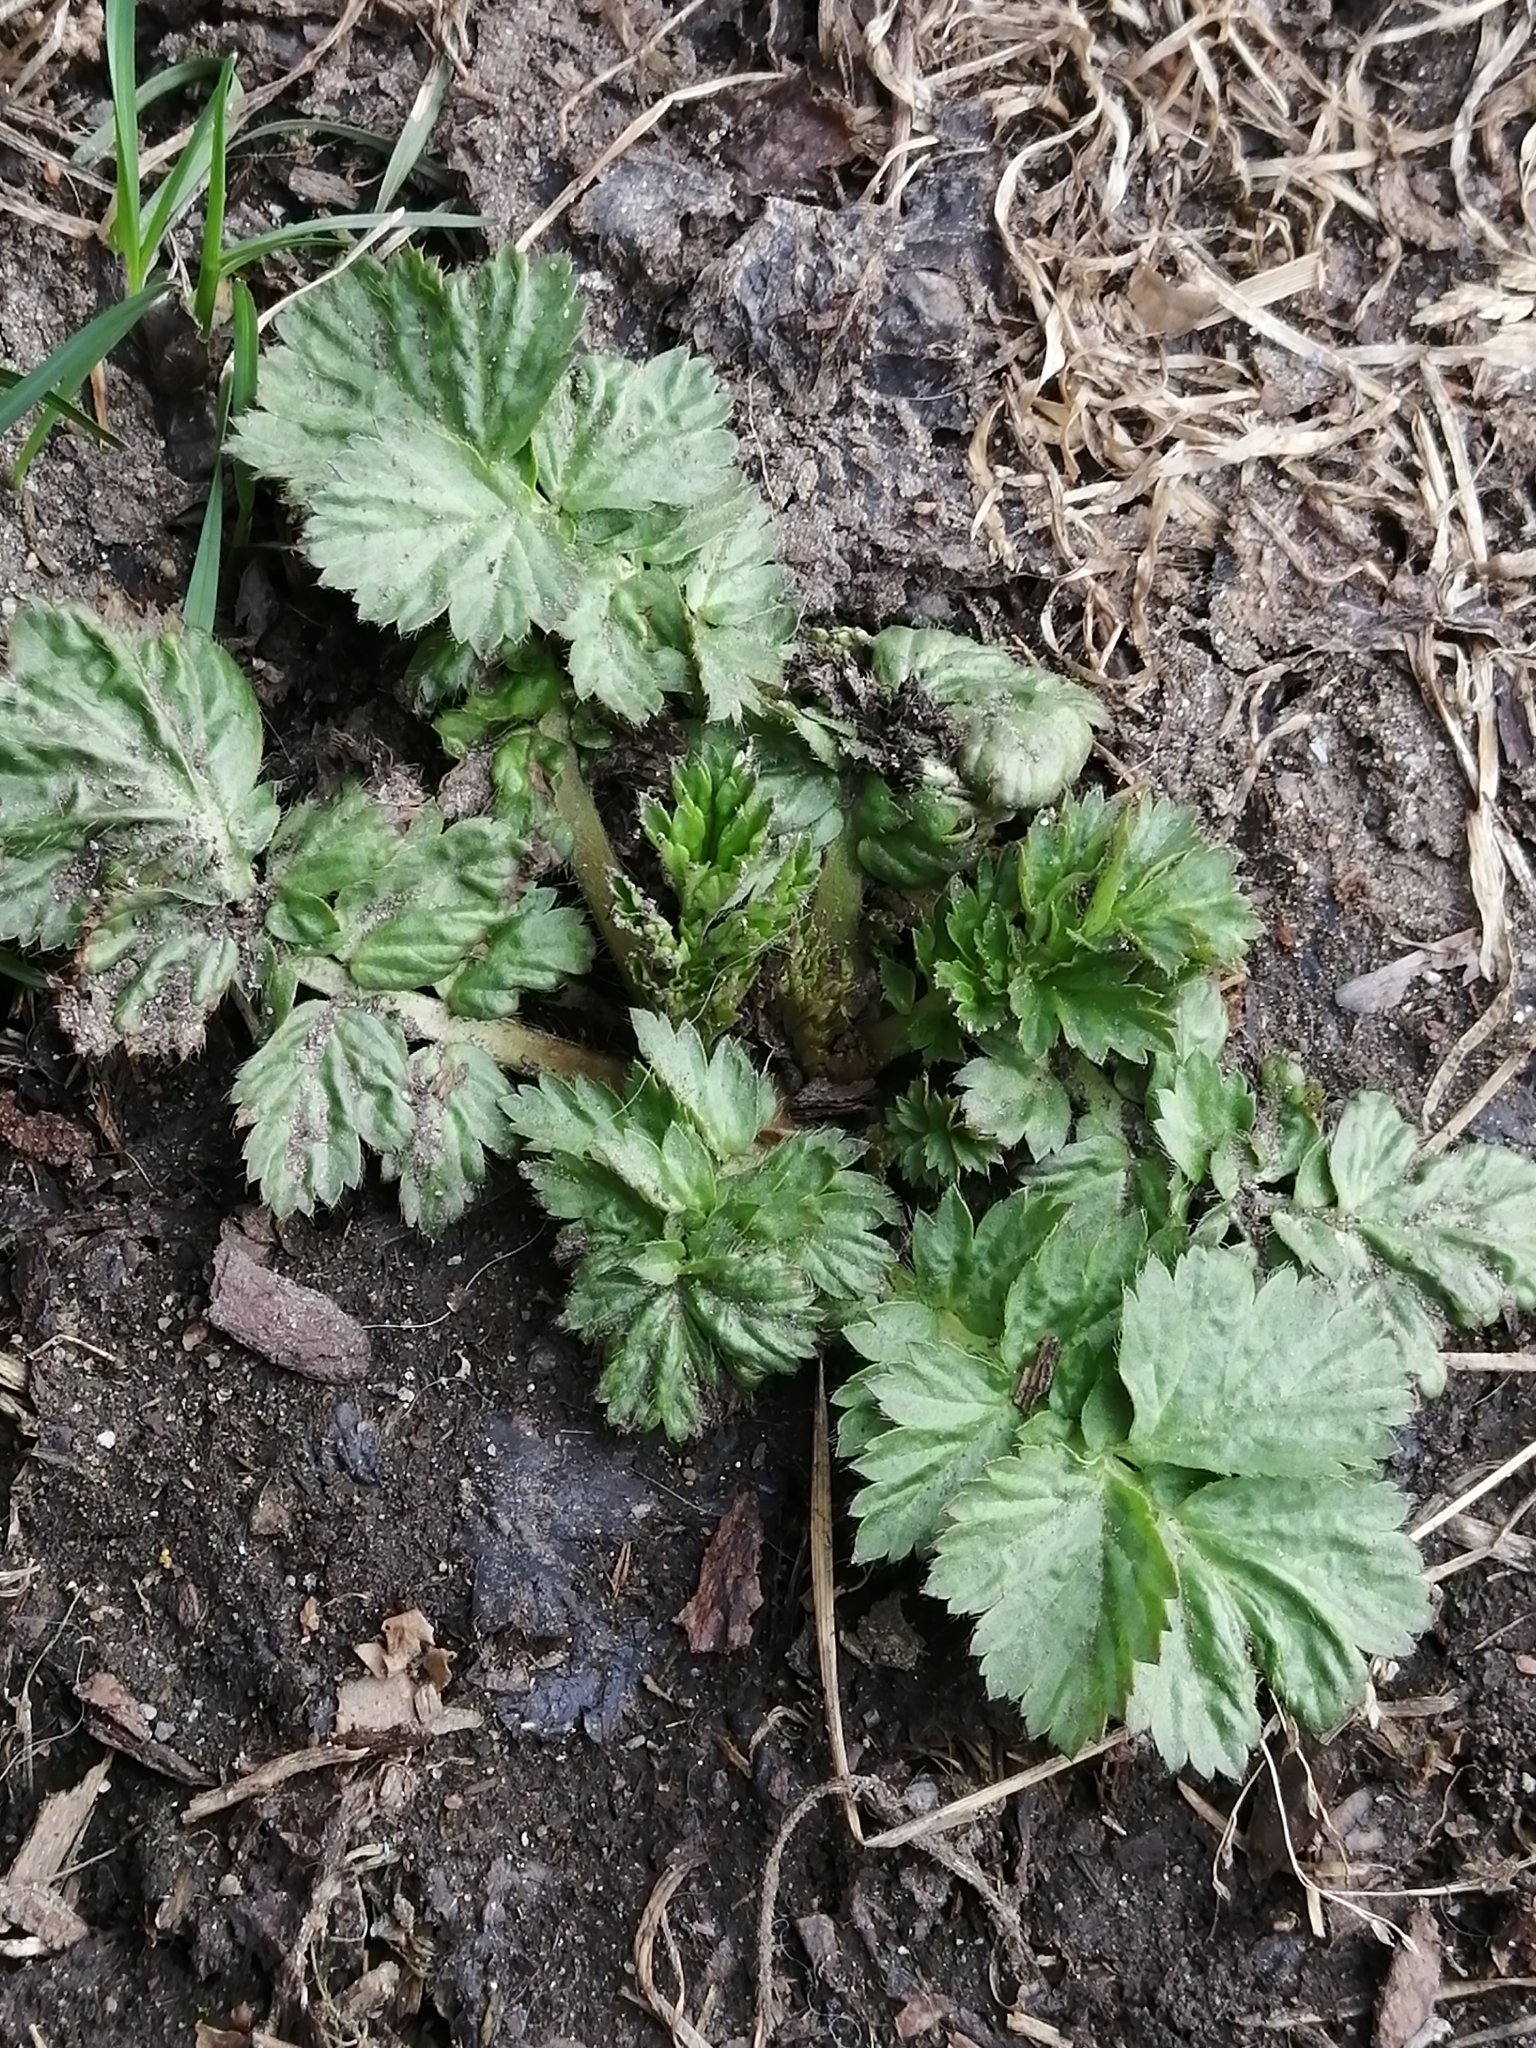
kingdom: Plantae
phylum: Tracheophyta
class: Magnoliopsida
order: Rosales
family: Rosaceae
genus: Geum
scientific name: Geum aleppicum
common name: Yellow avens
